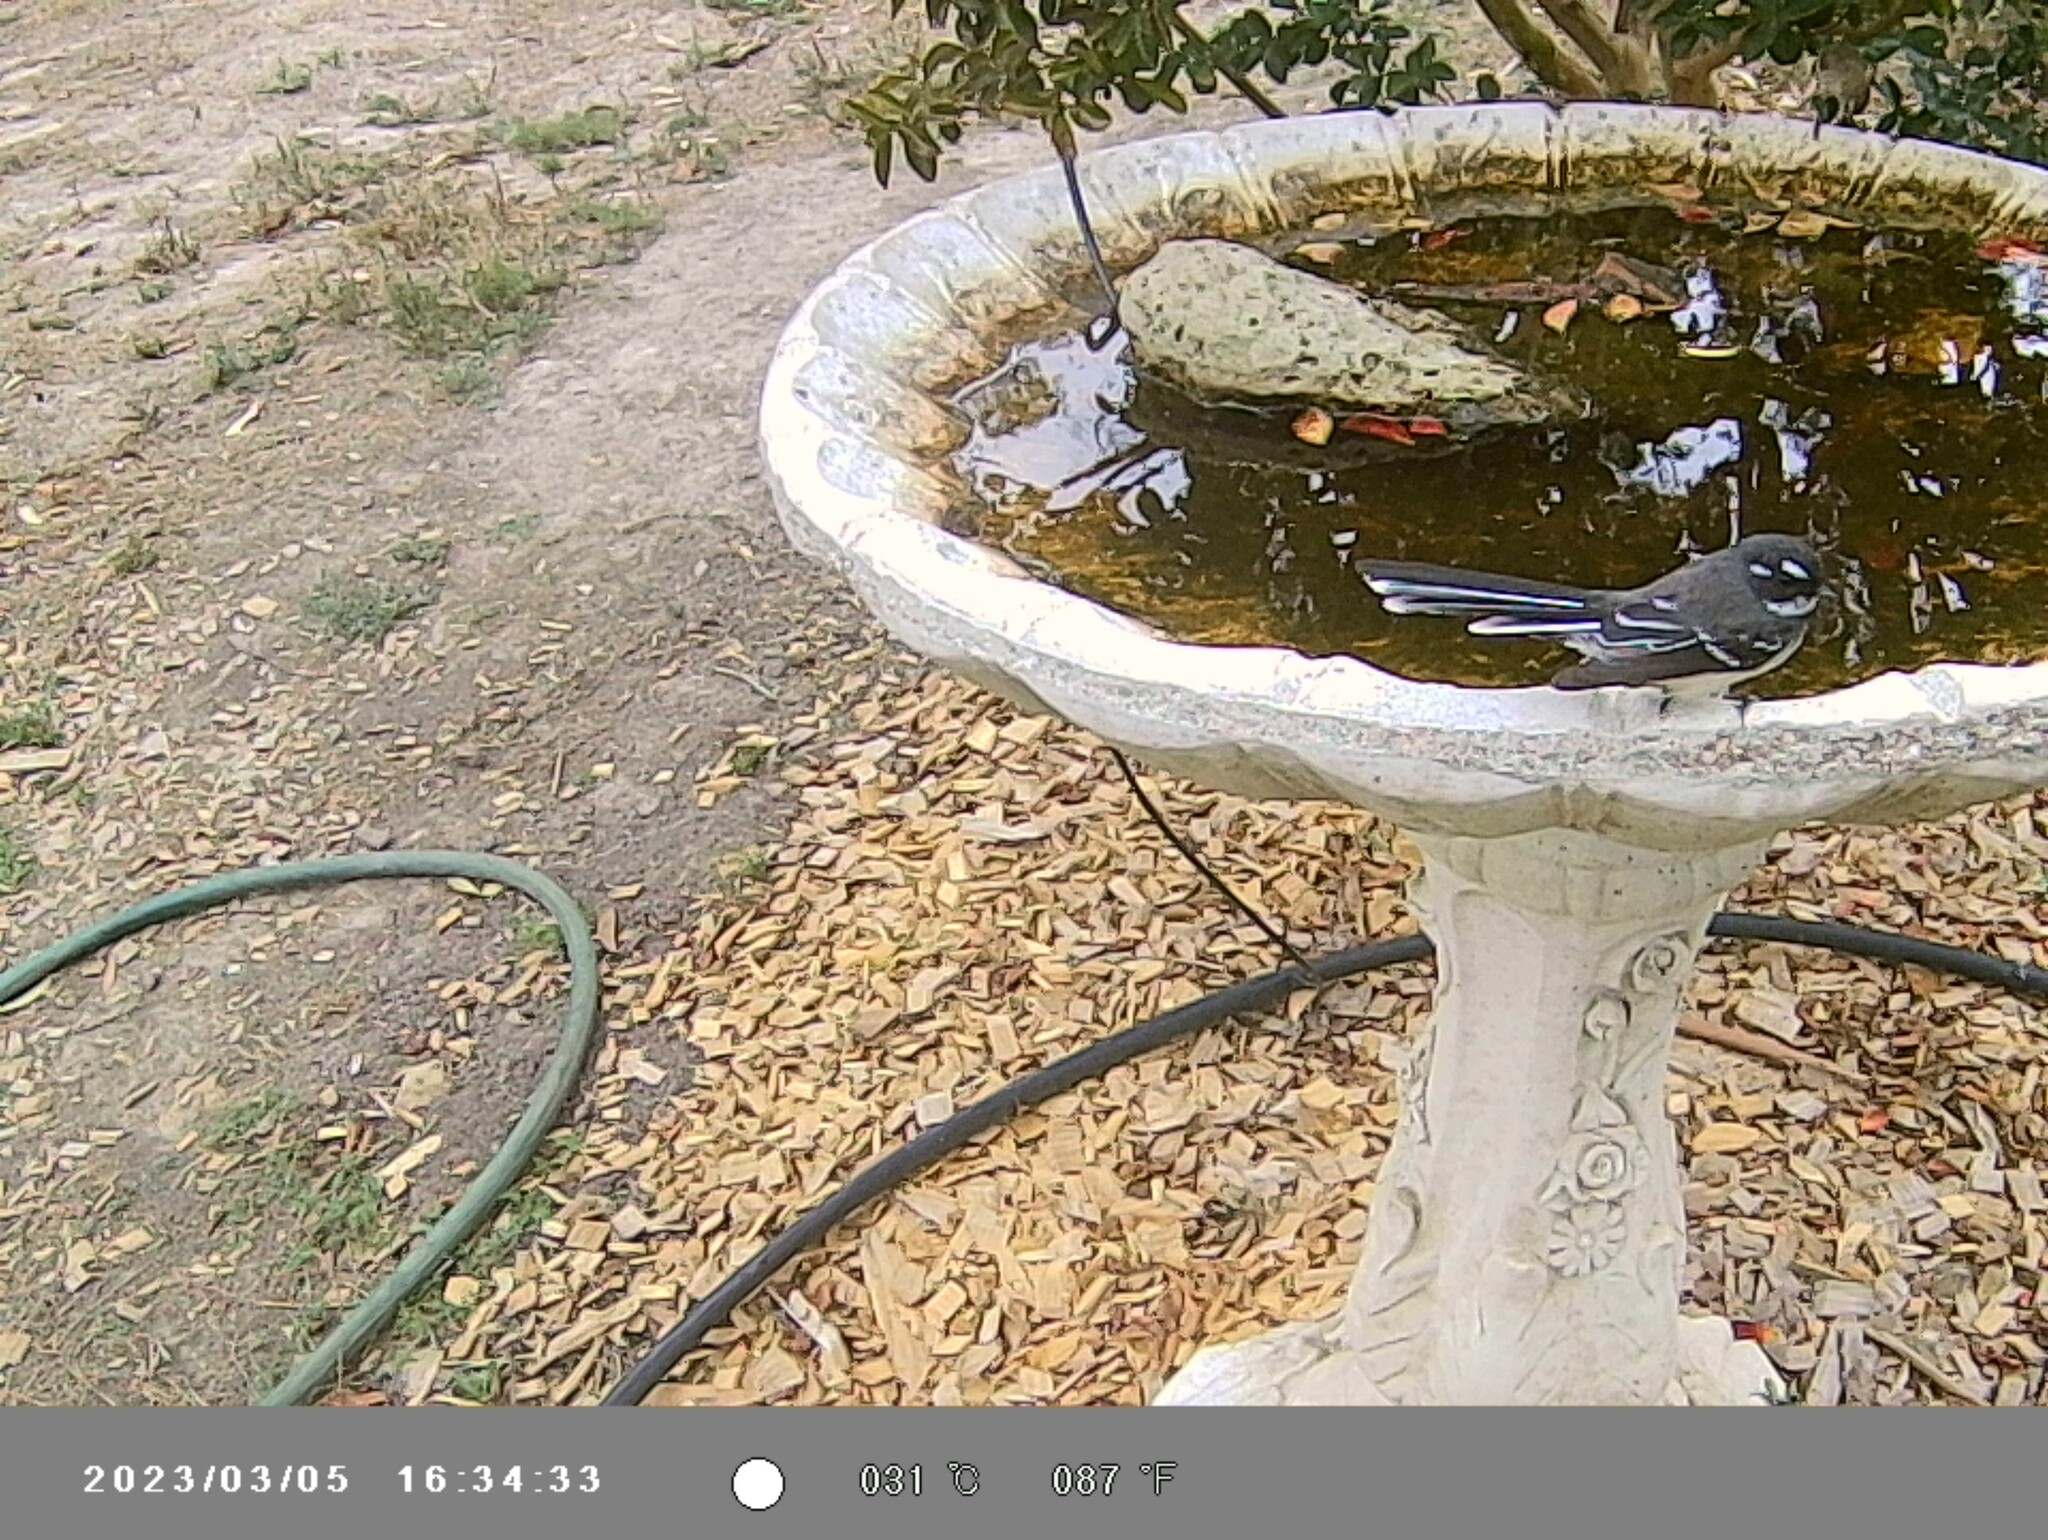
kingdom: Animalia
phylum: Chordata
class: Aves
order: Passeriformes
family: Rhipiduridae
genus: Rhipidura
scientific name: Rhipidura albiscapa
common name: Grey fantail
